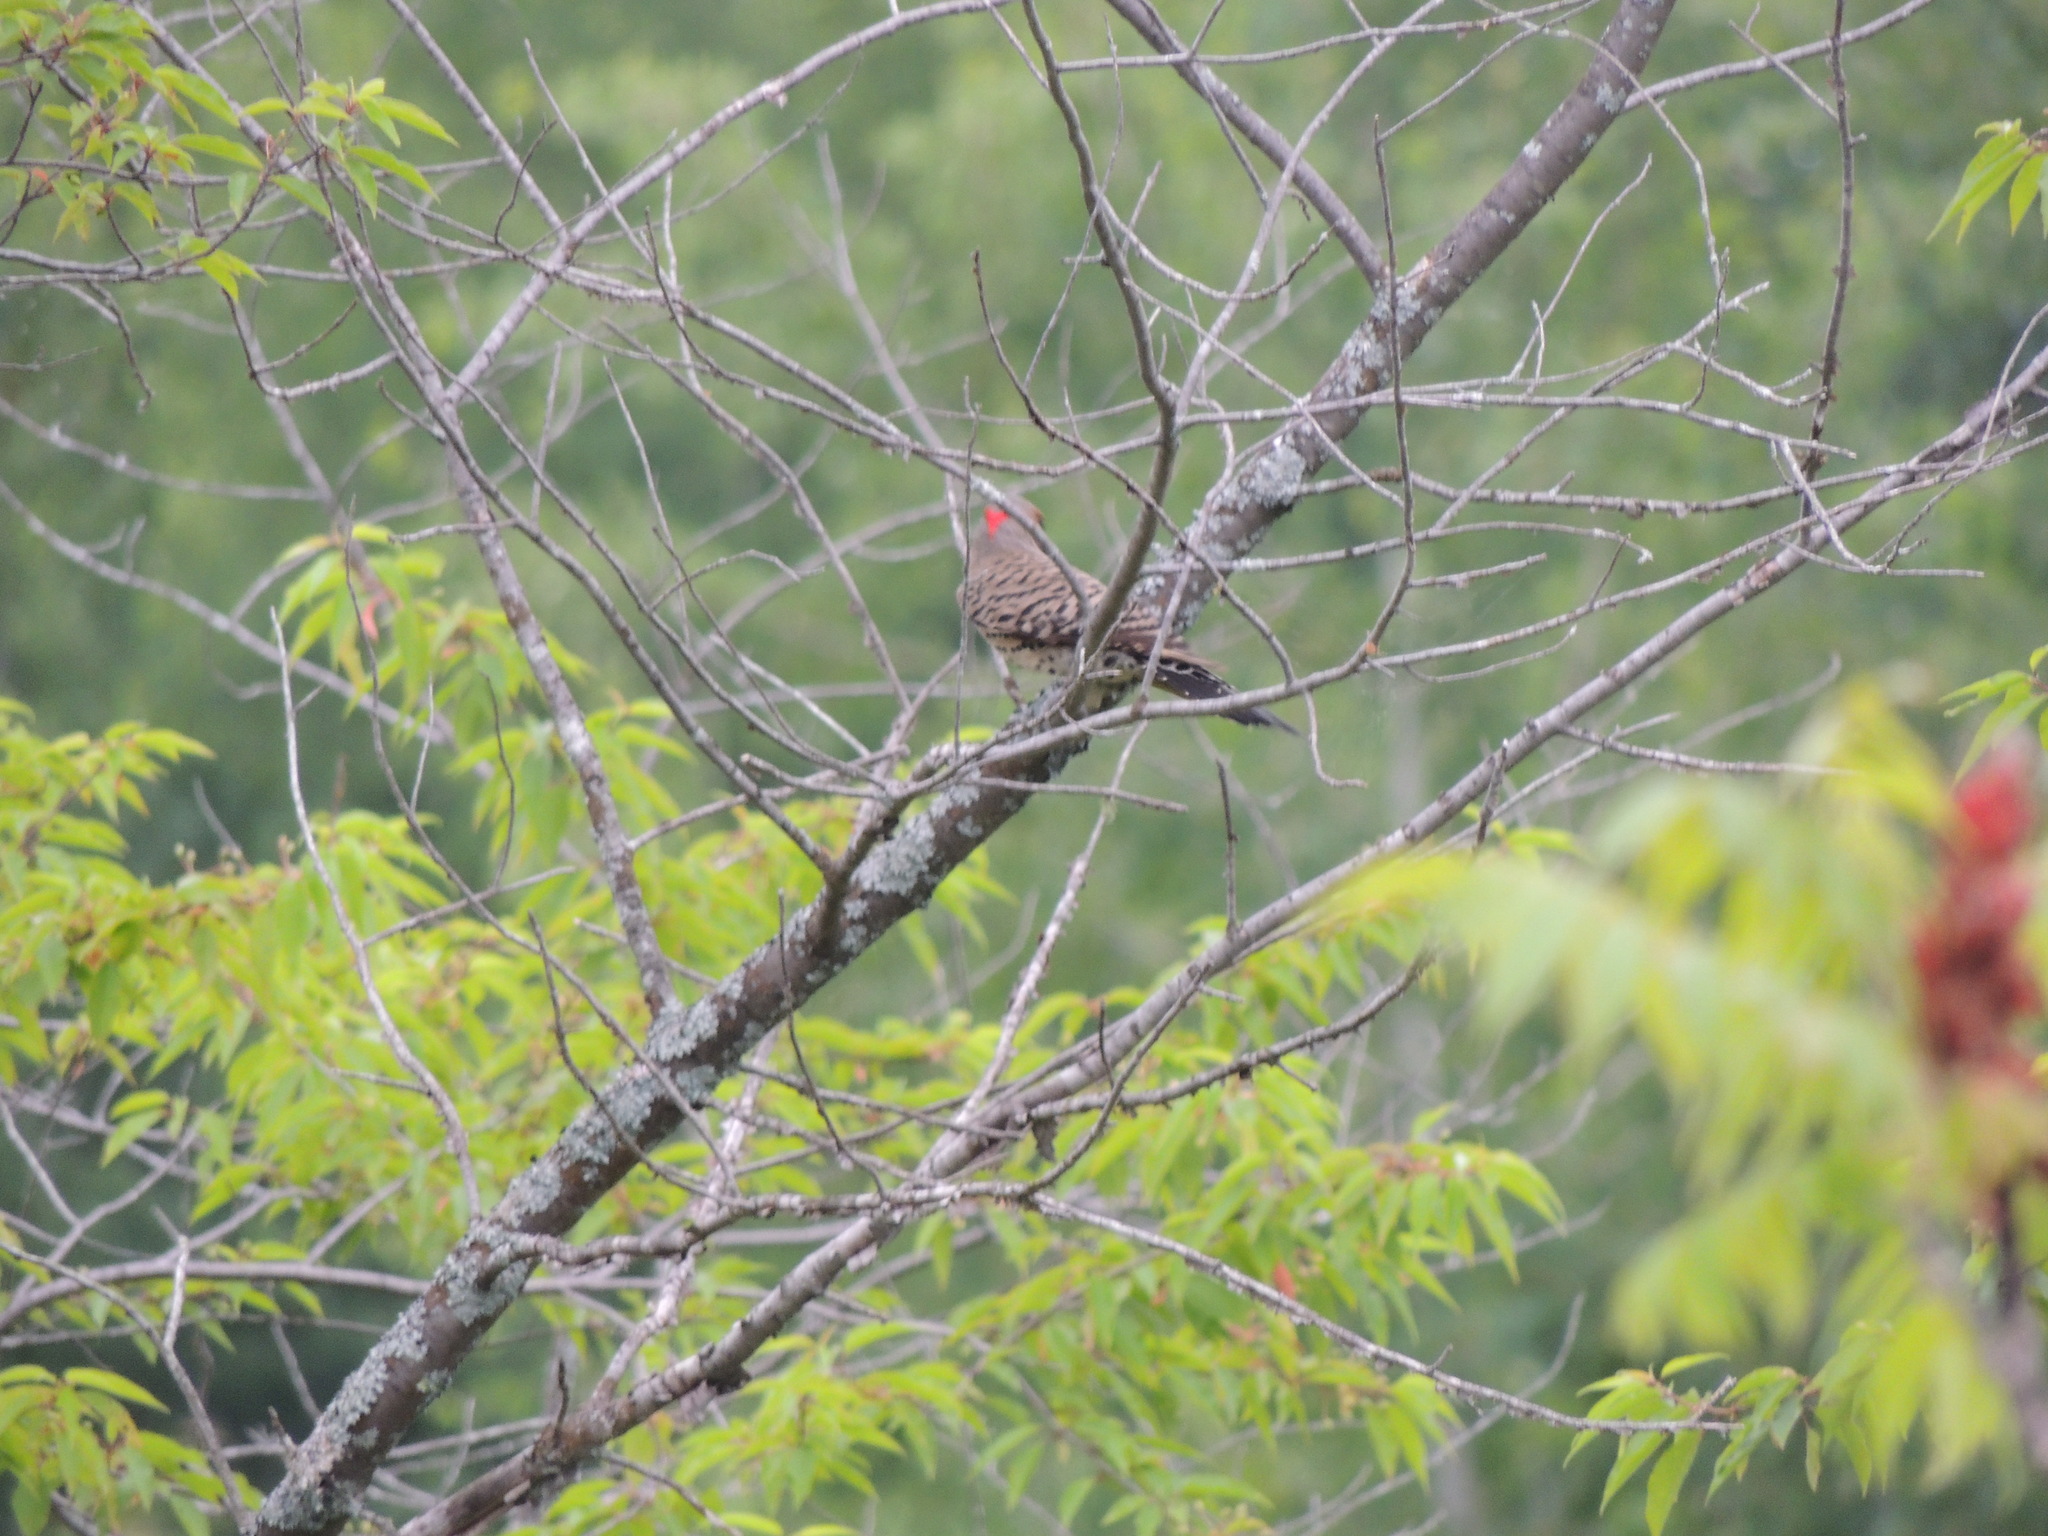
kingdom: Animalia
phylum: Chordata
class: Aves
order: Piciformes
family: Picidae
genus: Colaptes
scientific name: Colaptes auratus
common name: Northern flicker
